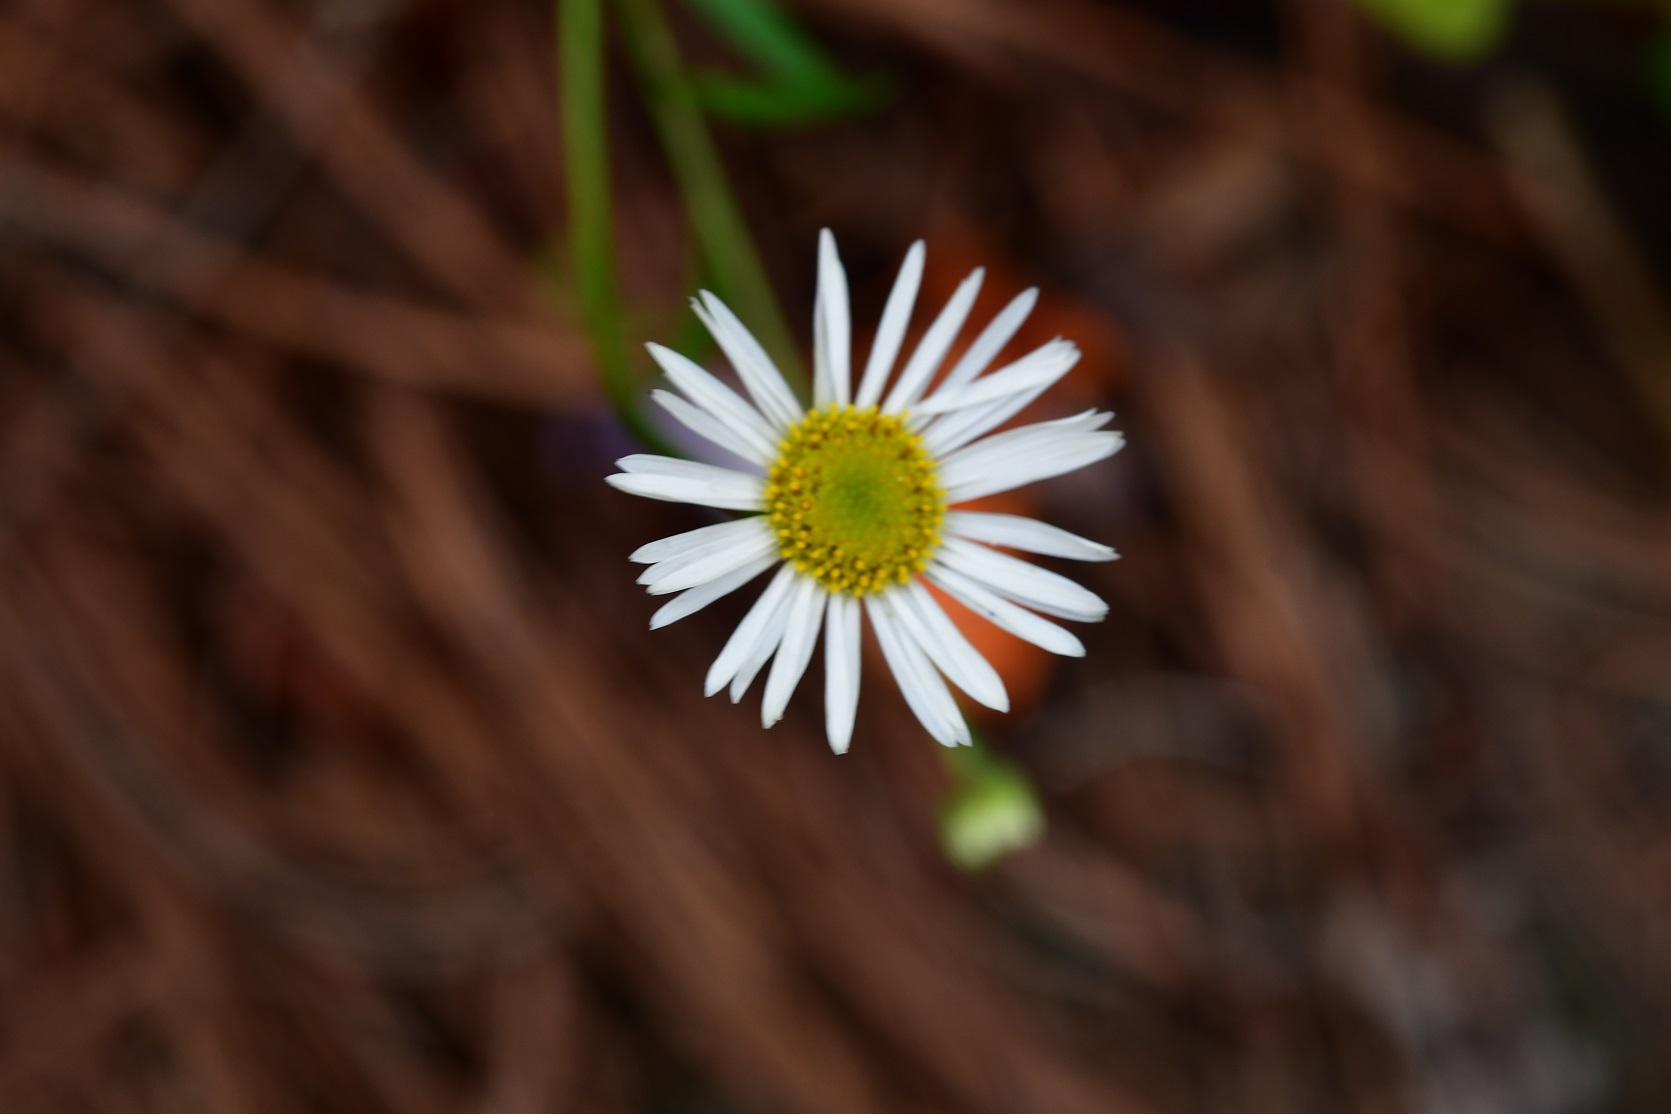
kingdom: Plantae
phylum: Tracheophyta
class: Magnoliopsida
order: Asterales
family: Asteraceae
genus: Erigeron
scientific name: Erigeron karvinskianus
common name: Mexican fleabane
